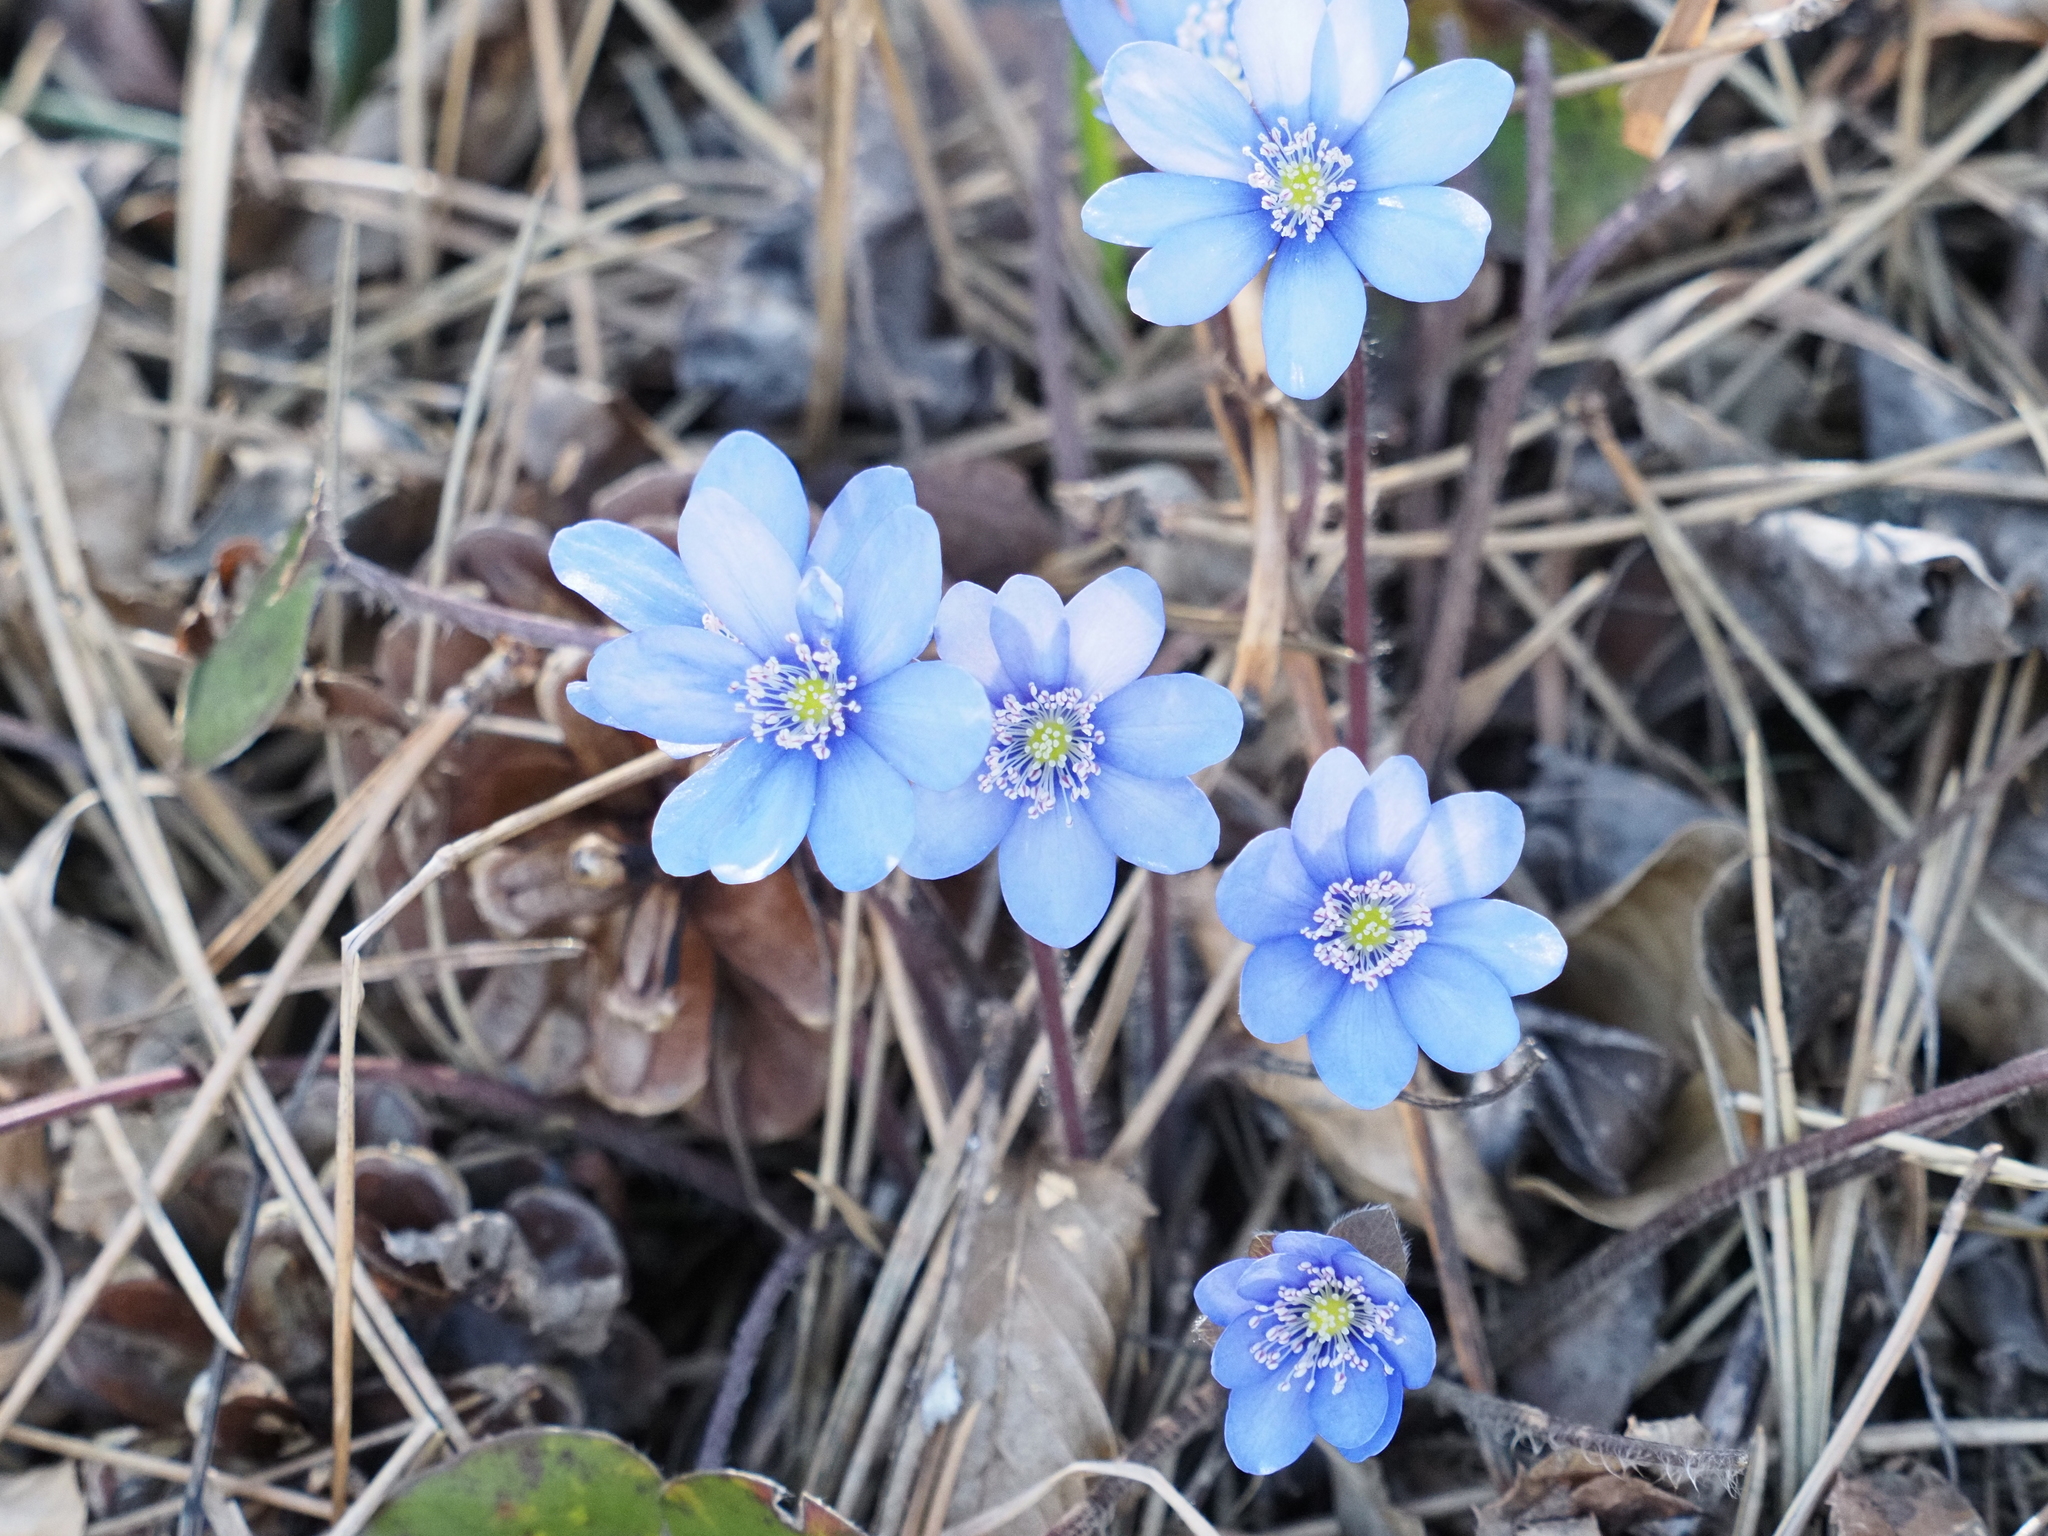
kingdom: Plantae
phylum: Tracheophyta
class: Magnoliopsida
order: Ranunculales
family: Ranunculaceae
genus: Hepatica
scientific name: Hepatica nobilis
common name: Liverleaf
